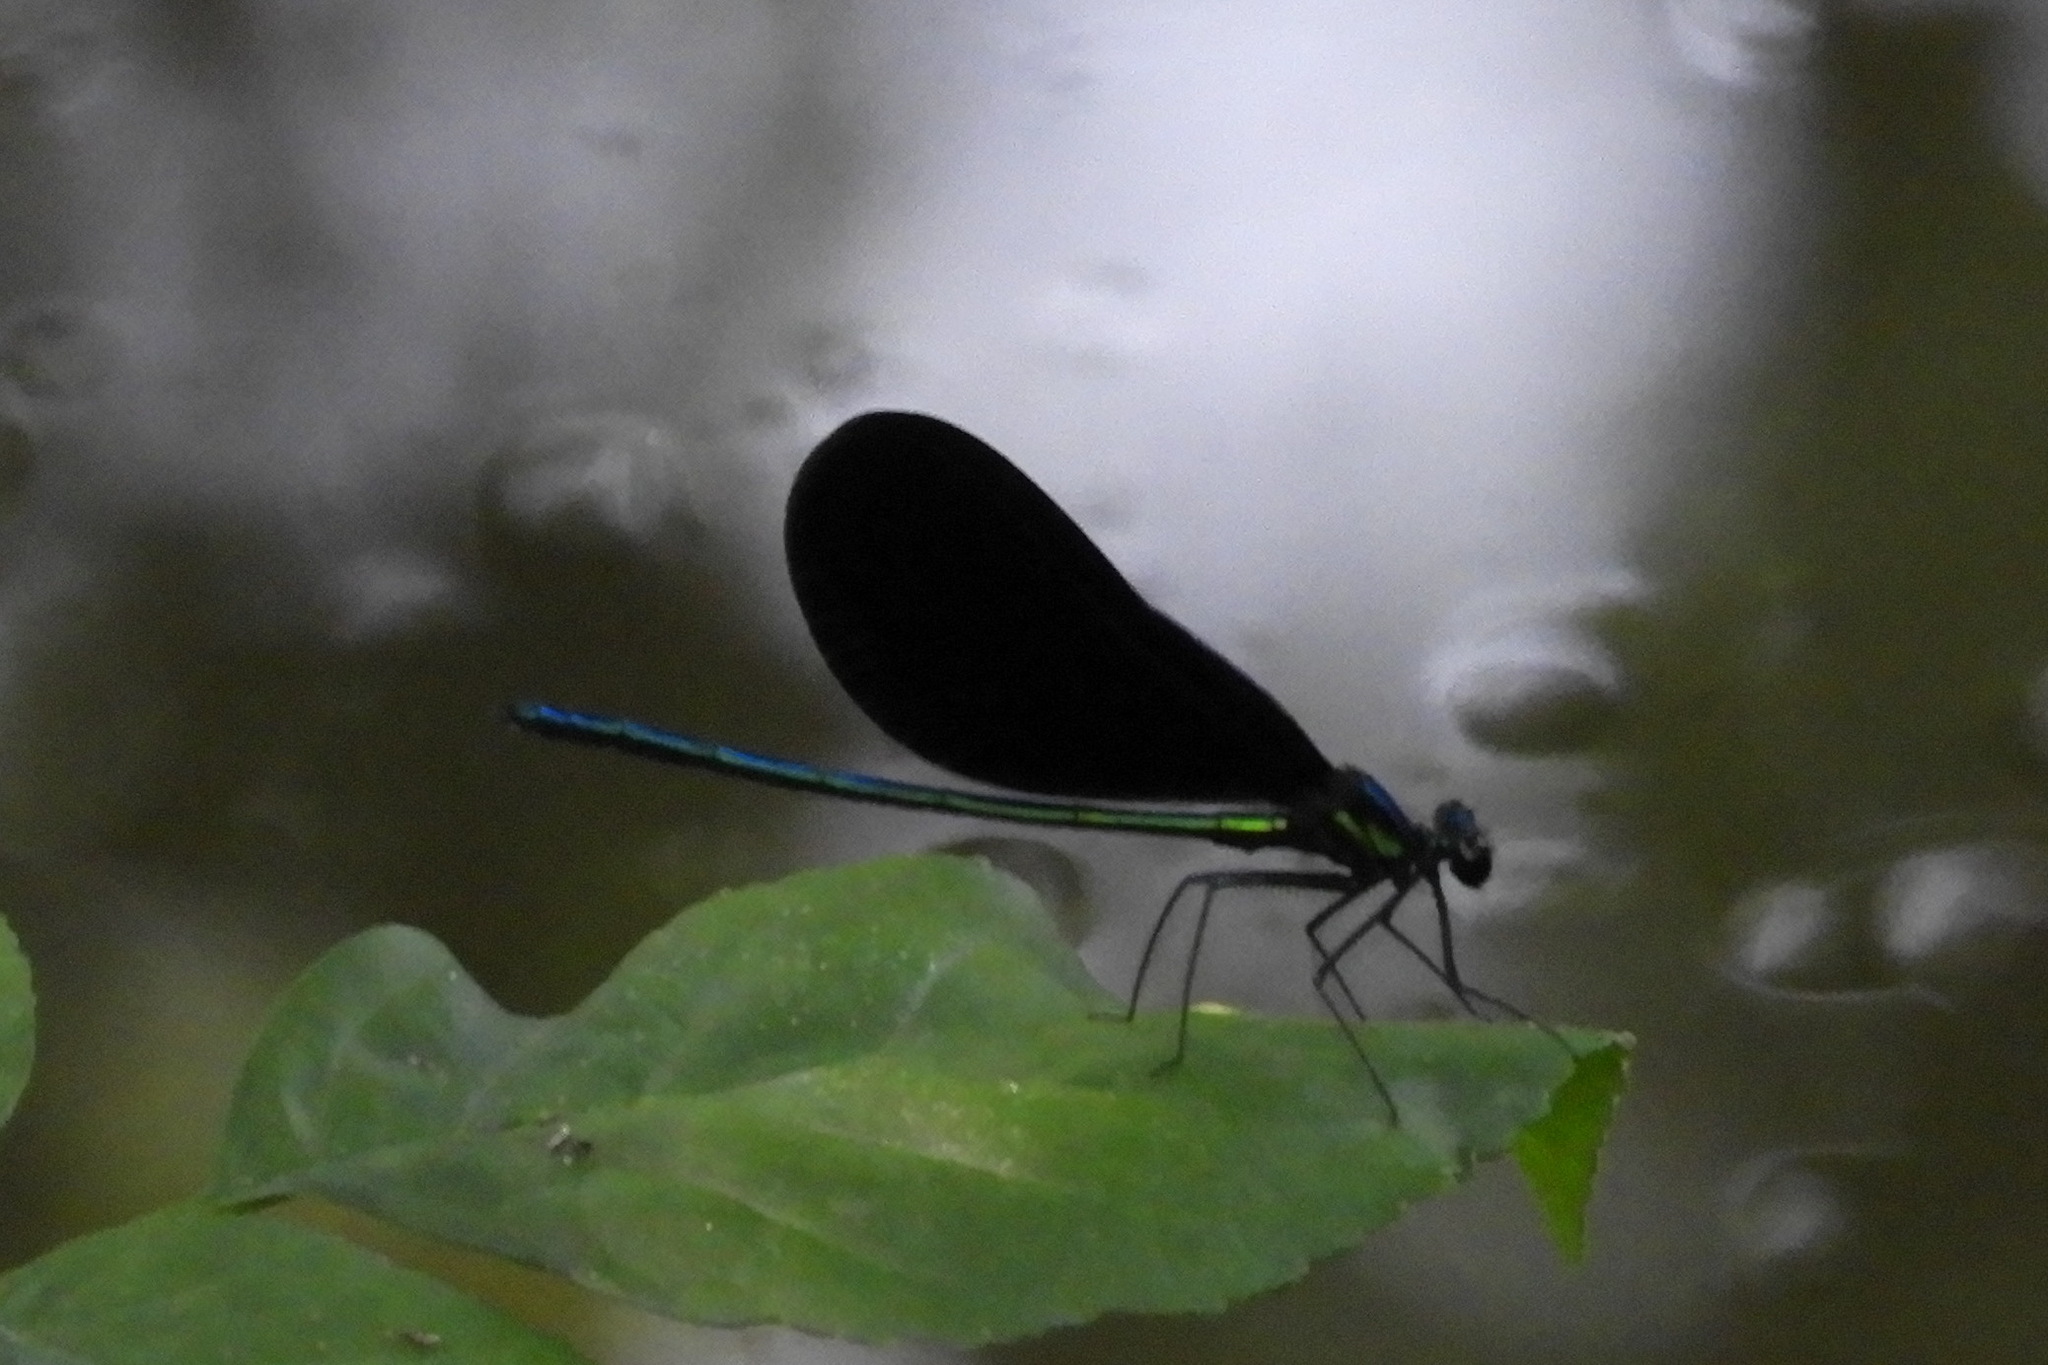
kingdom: Animalia
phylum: Arthropoda
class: Insecta
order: Odonata
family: Calopterygidae
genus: Calopteryx
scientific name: Calopteryx maculata
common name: Ebony jewelwing
